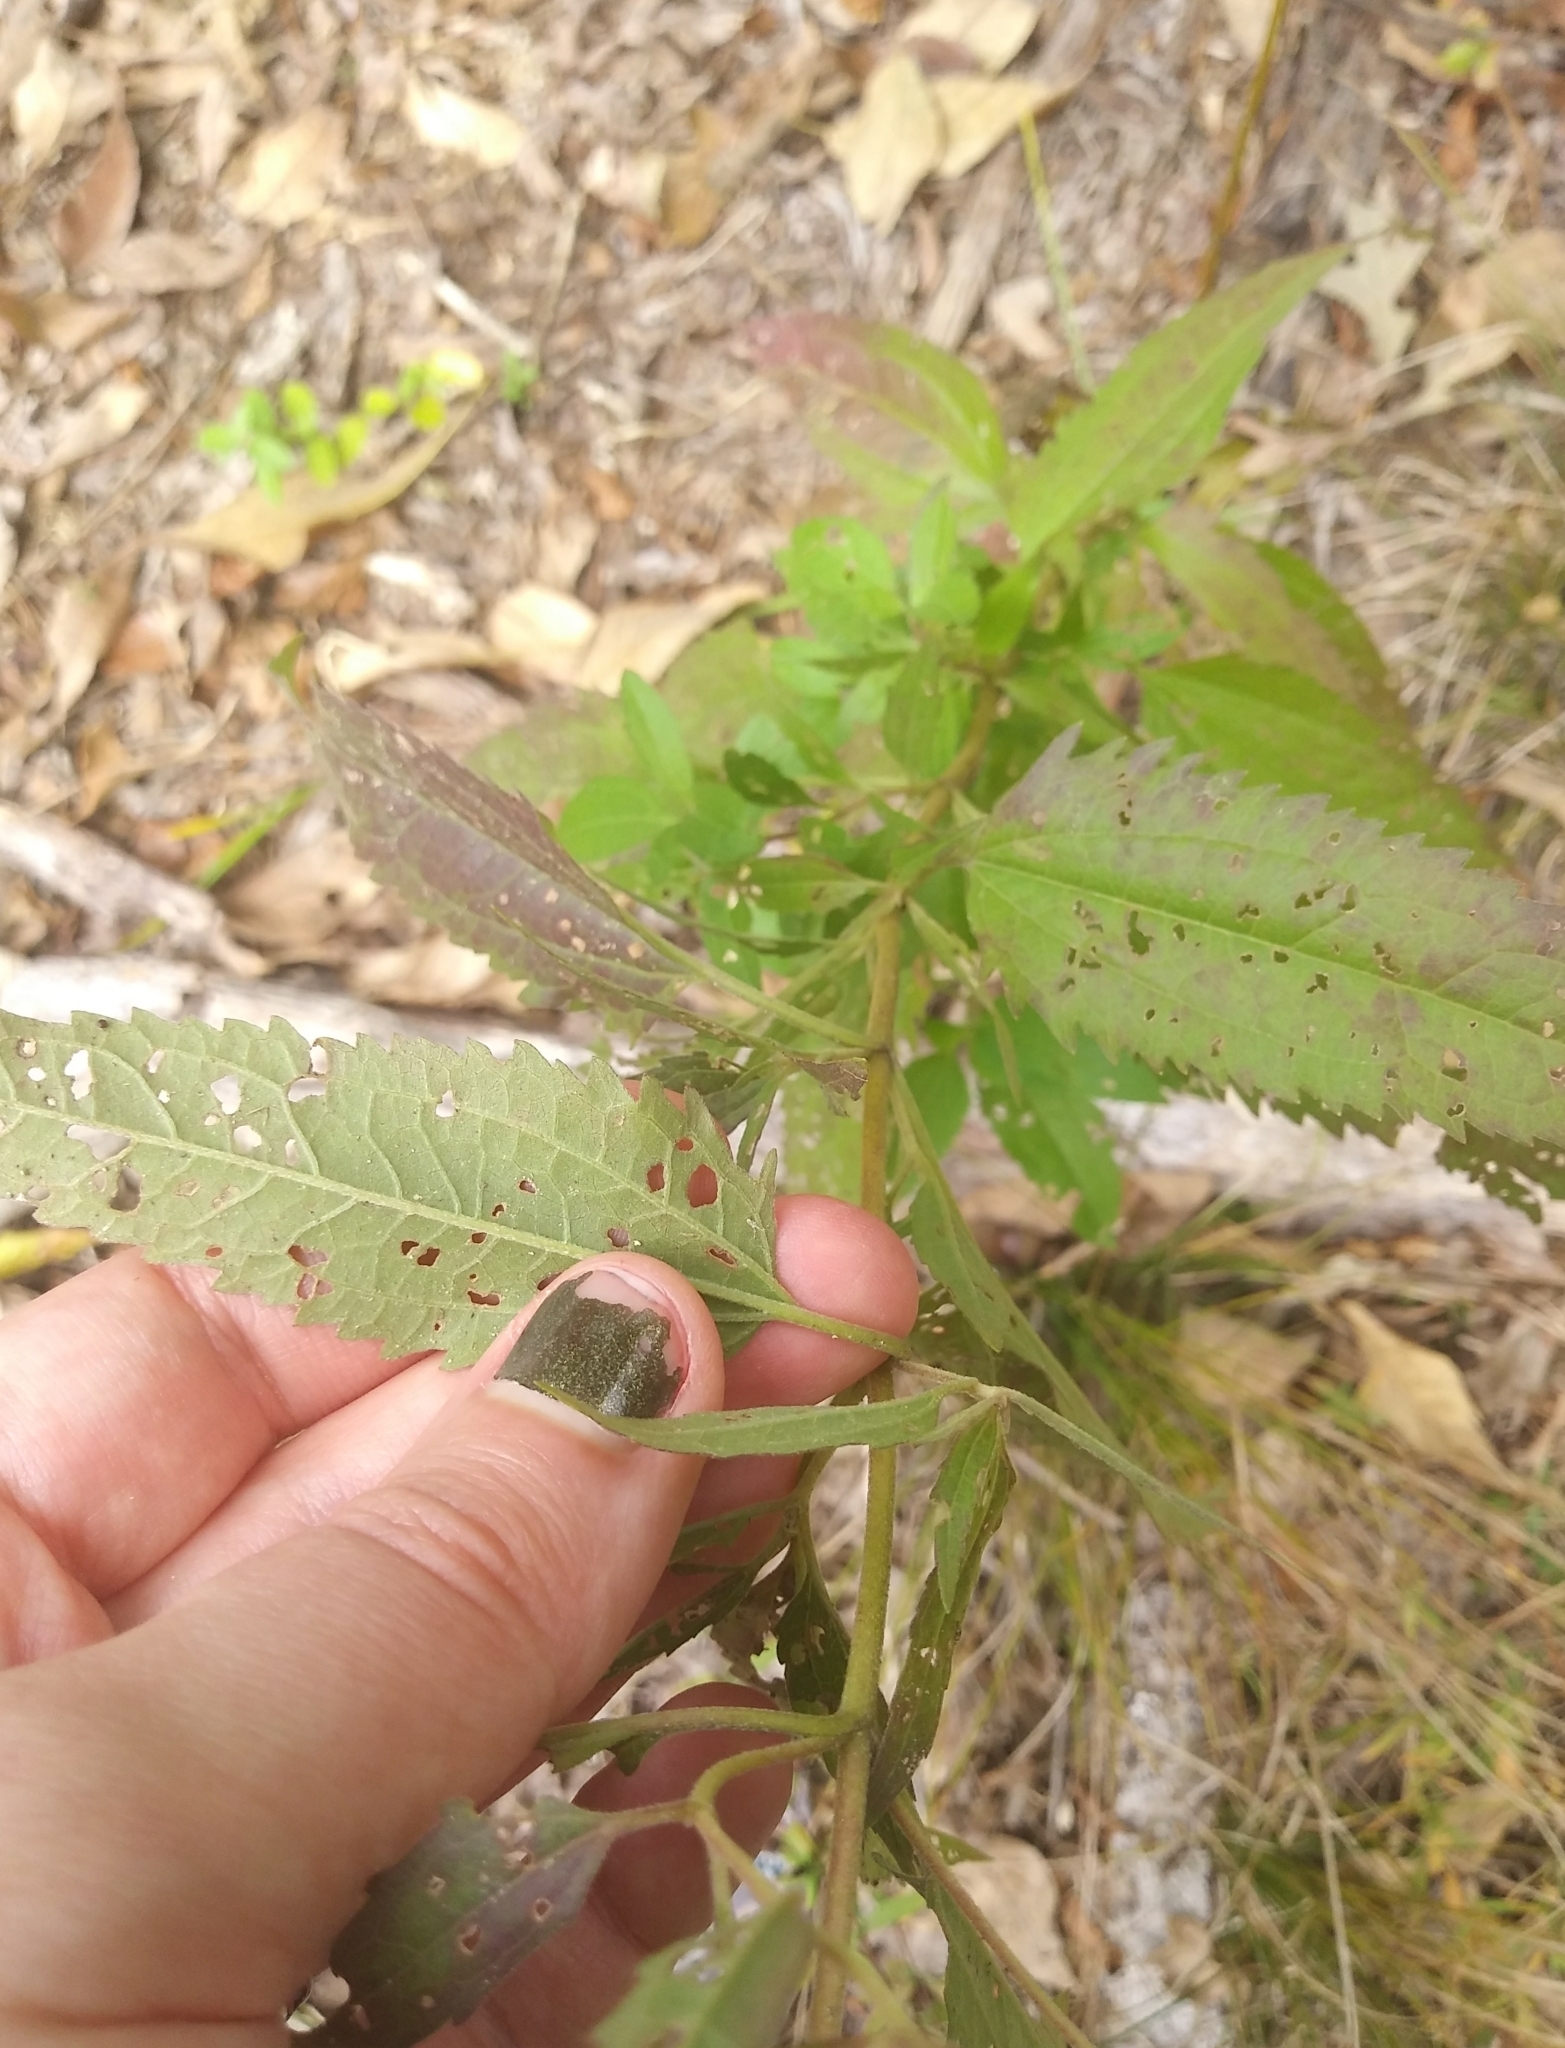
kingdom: Plantae
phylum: Tracheophyta
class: Magnoliopsida
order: Asterales
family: Asteraceae
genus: Eupatorium
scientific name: Eupatorium serotinum
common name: Late boneset
